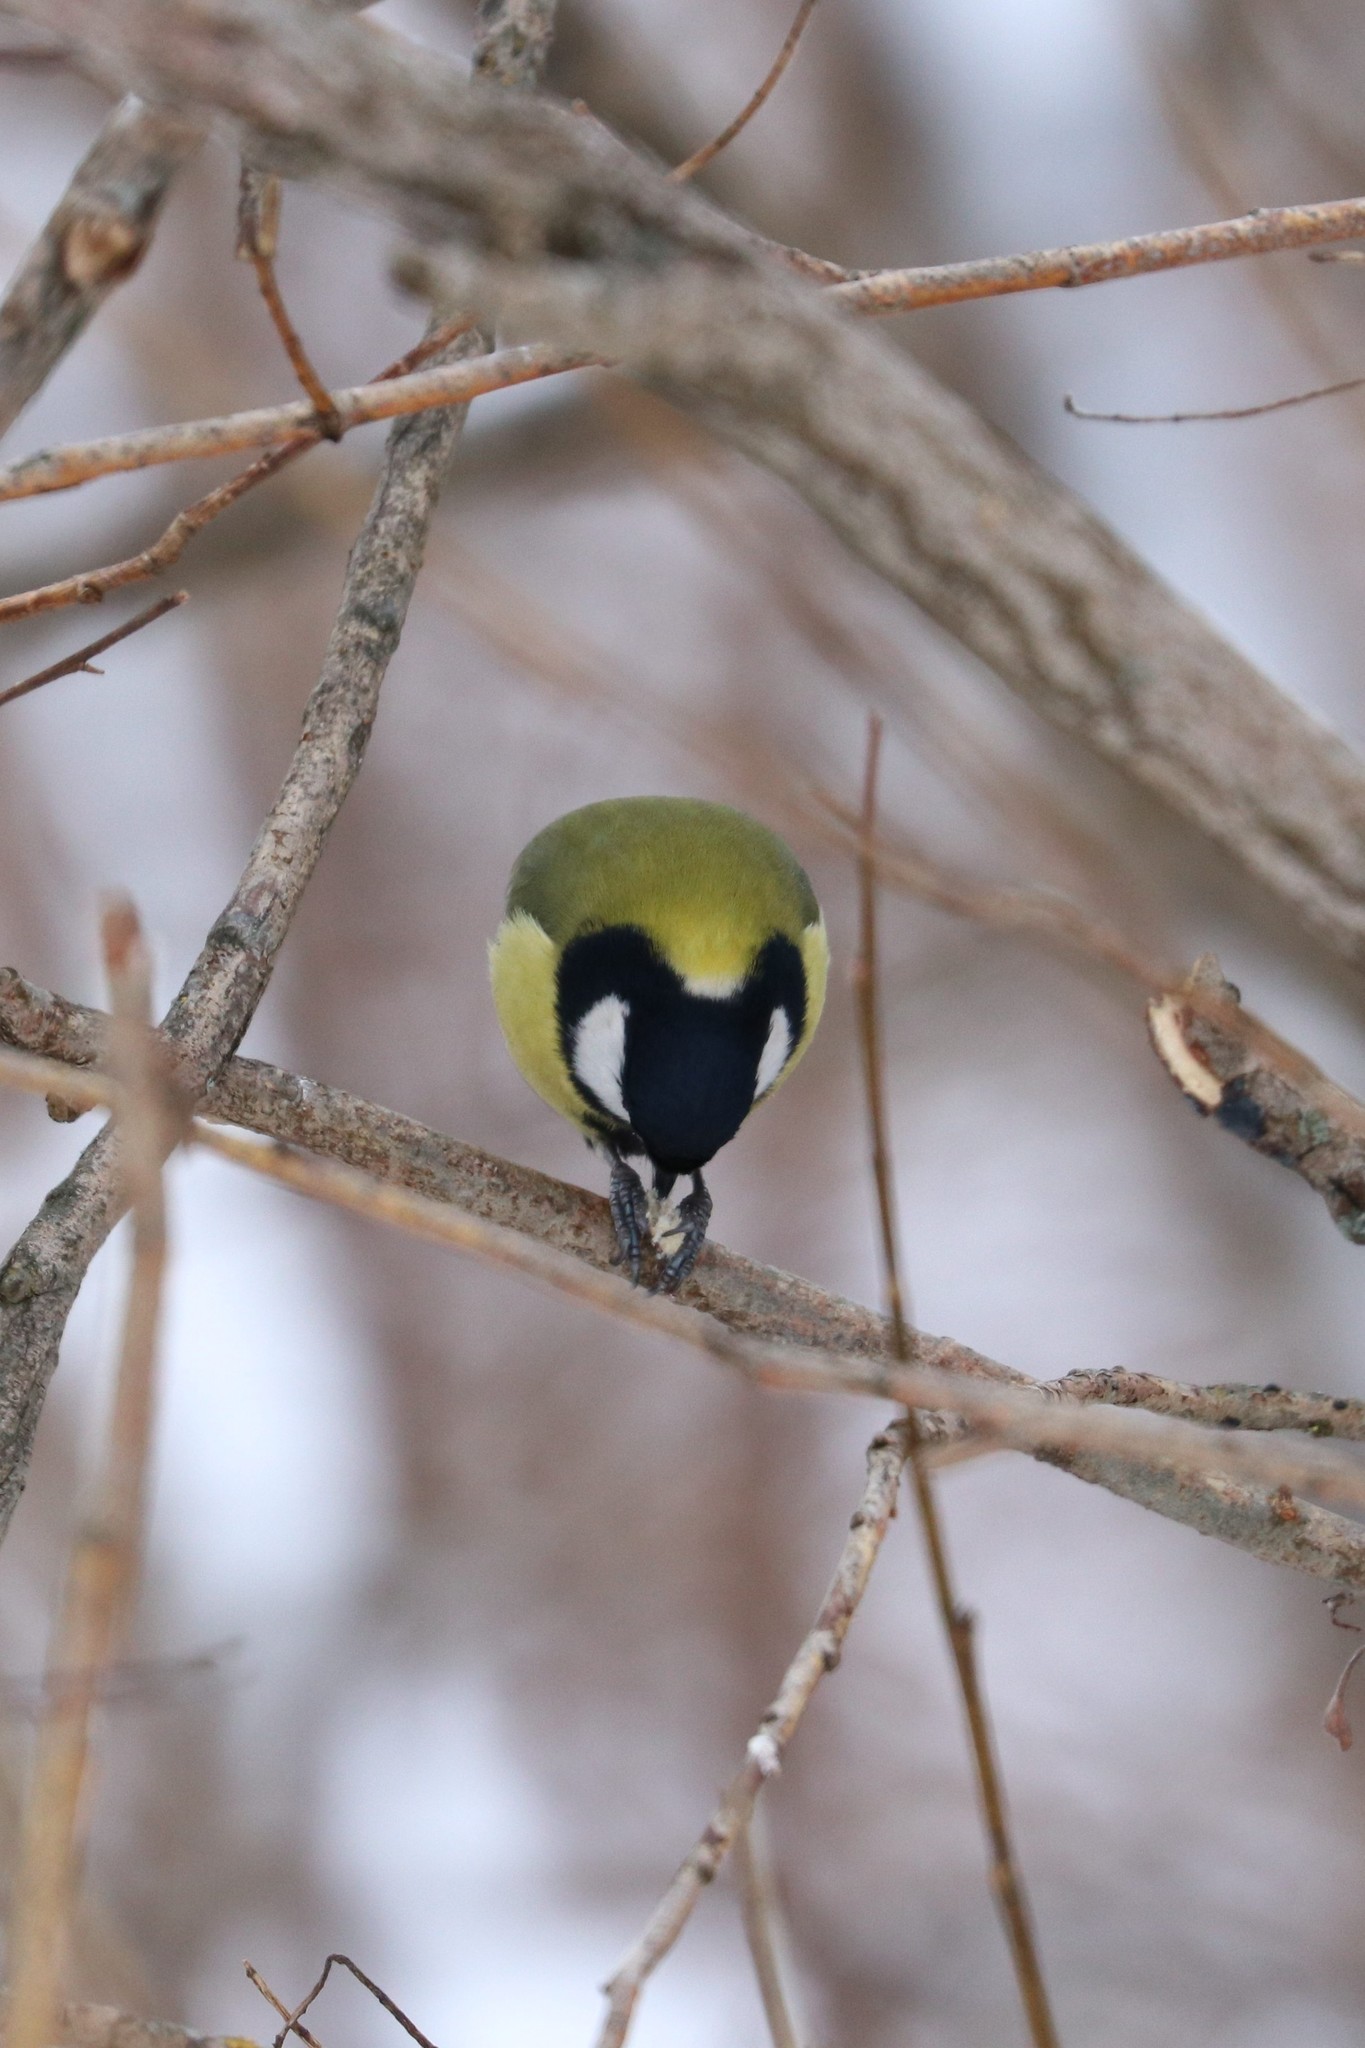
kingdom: Animalia
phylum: Chordata
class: Aves
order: Passeriformes
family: Paridae
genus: Parus
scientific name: Parus major
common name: Great tit
